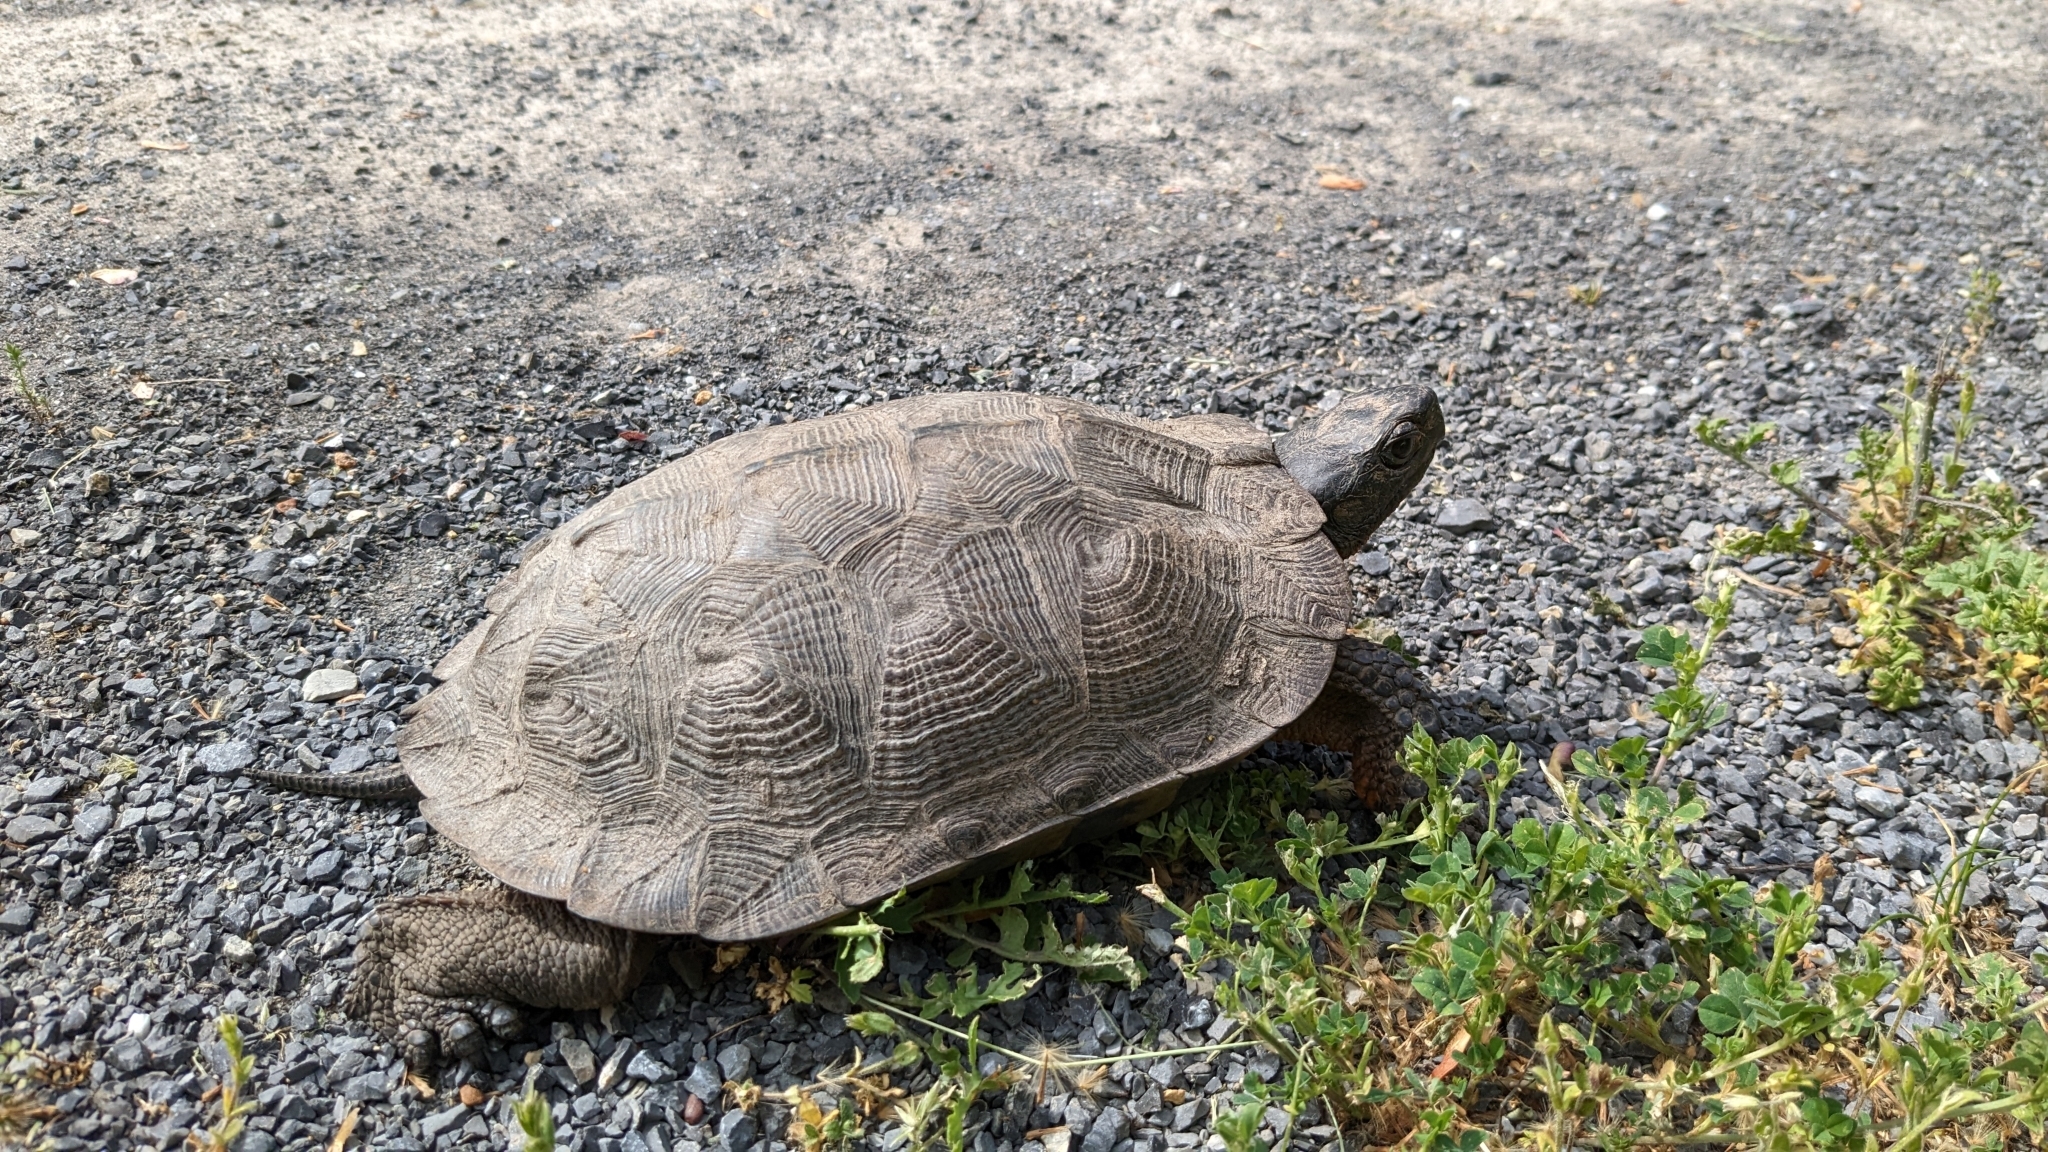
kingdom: Animalia
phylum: Chordata
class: Testudines
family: Emydidae
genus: Glyptemys
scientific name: Glyptemys insculpta
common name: Wood turtle
